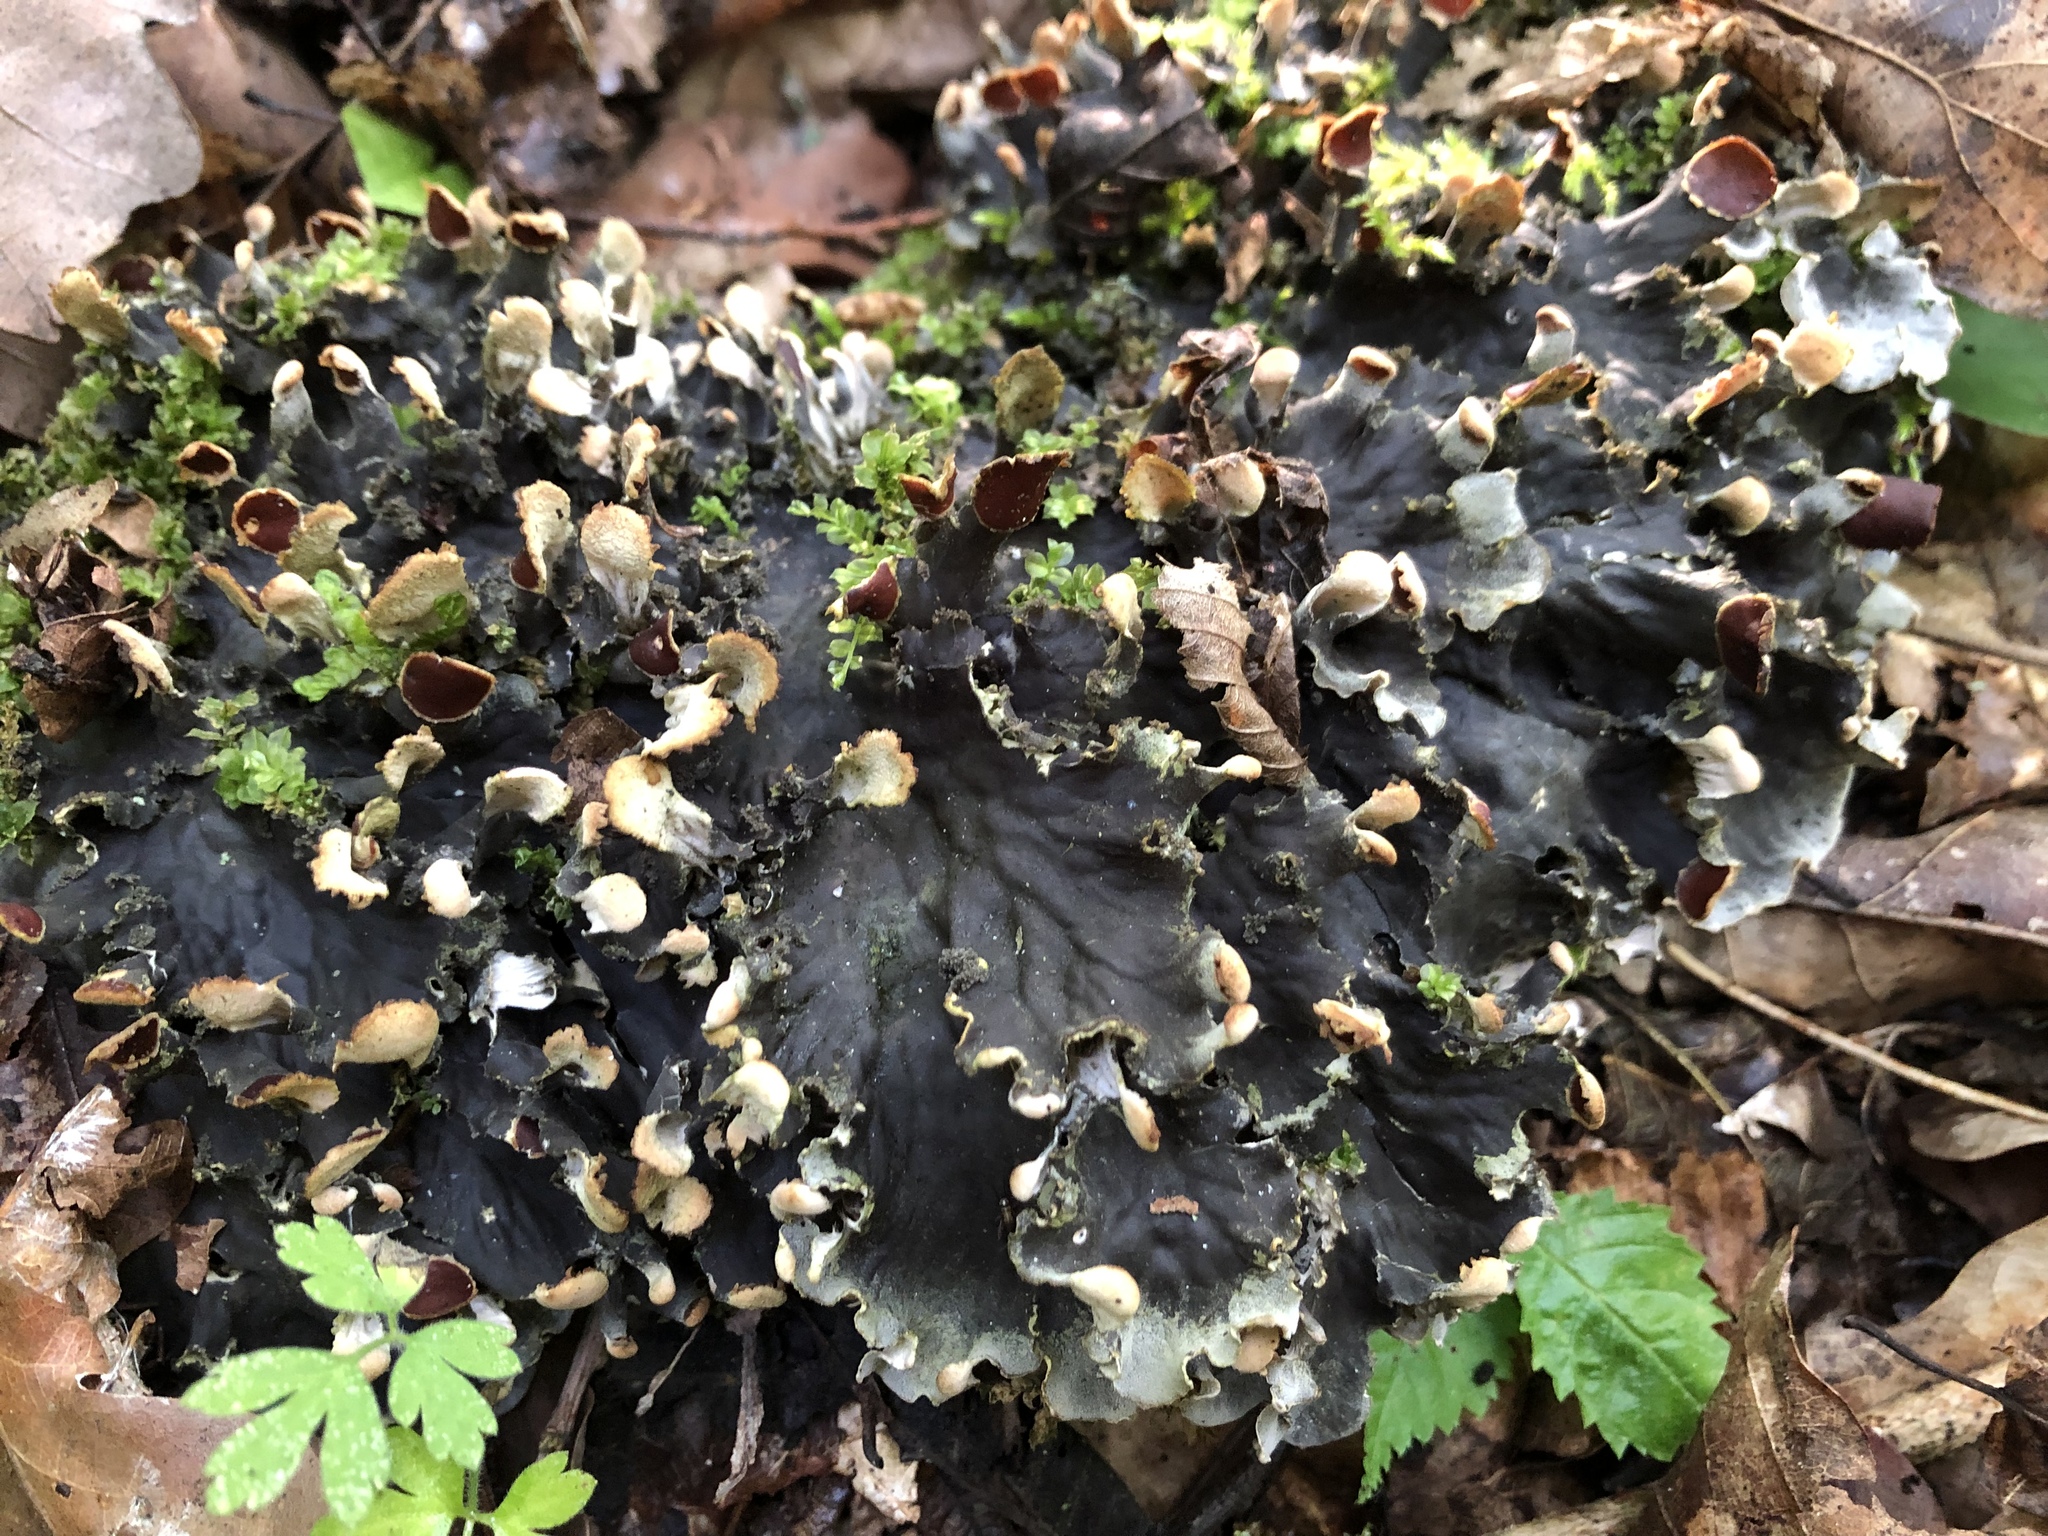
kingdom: Fungi
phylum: Ascomycota
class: Lecanoromycetes
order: Peltigerales
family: Peltigeraceae
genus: Peltigera
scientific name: Peltigera praetextata
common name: Scaly dog-lichen
